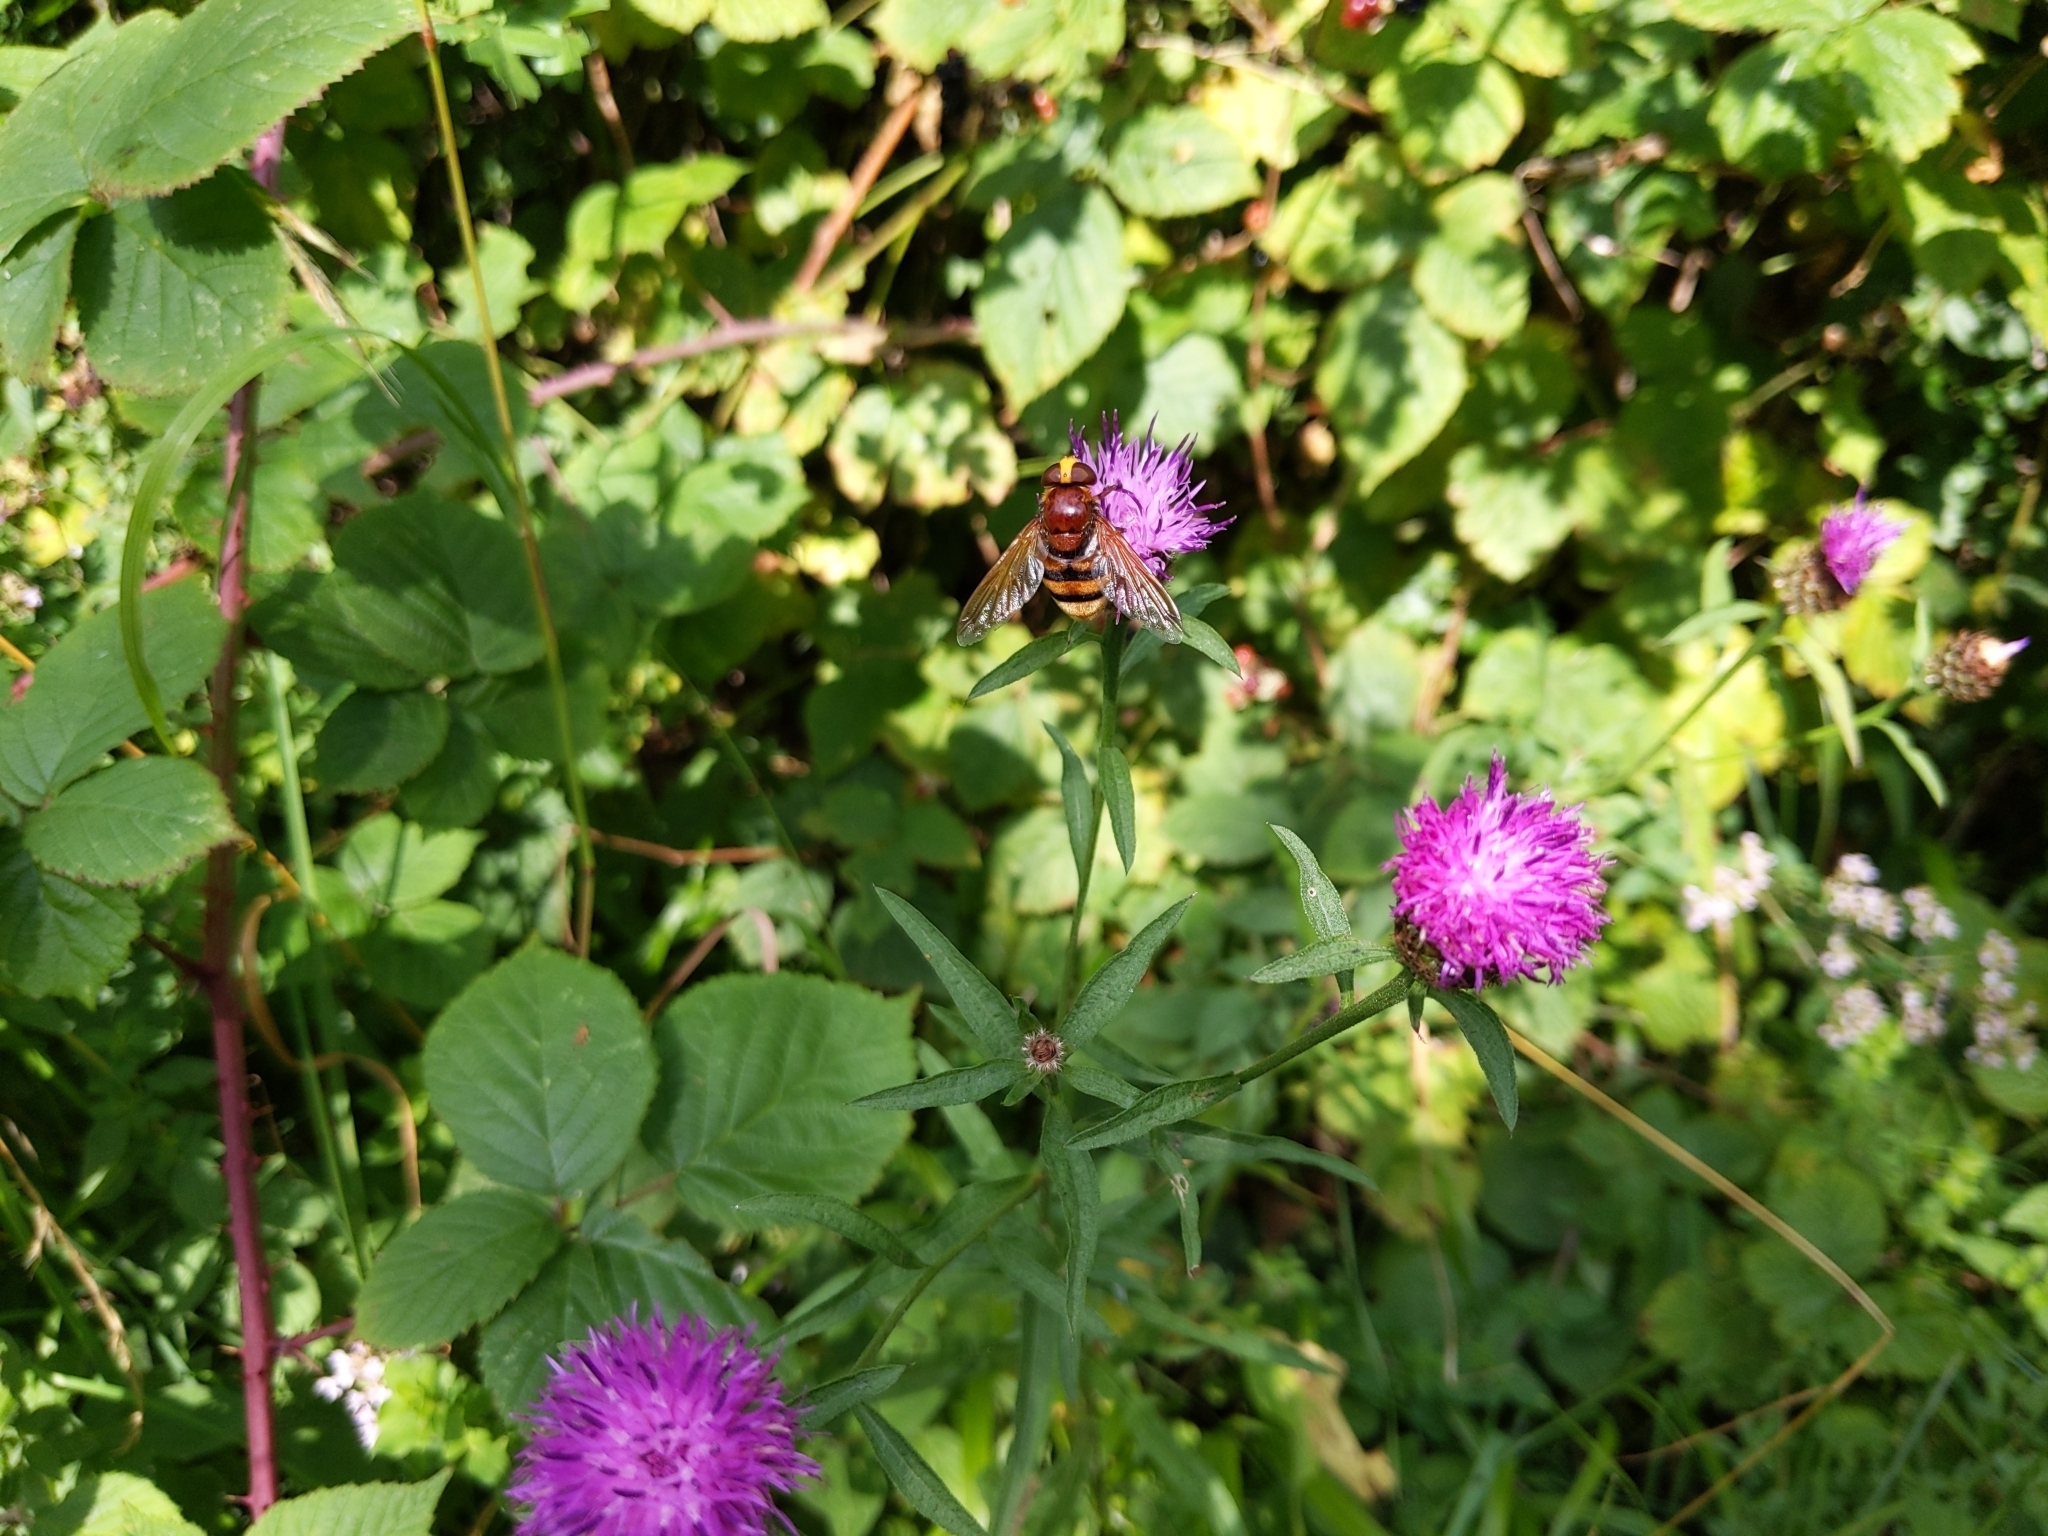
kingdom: Animalia
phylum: Arthropoda
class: Insecta
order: Diptera
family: Syrphidae
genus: Volucella
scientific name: Volucella zonaria
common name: Hornet hoverfly
